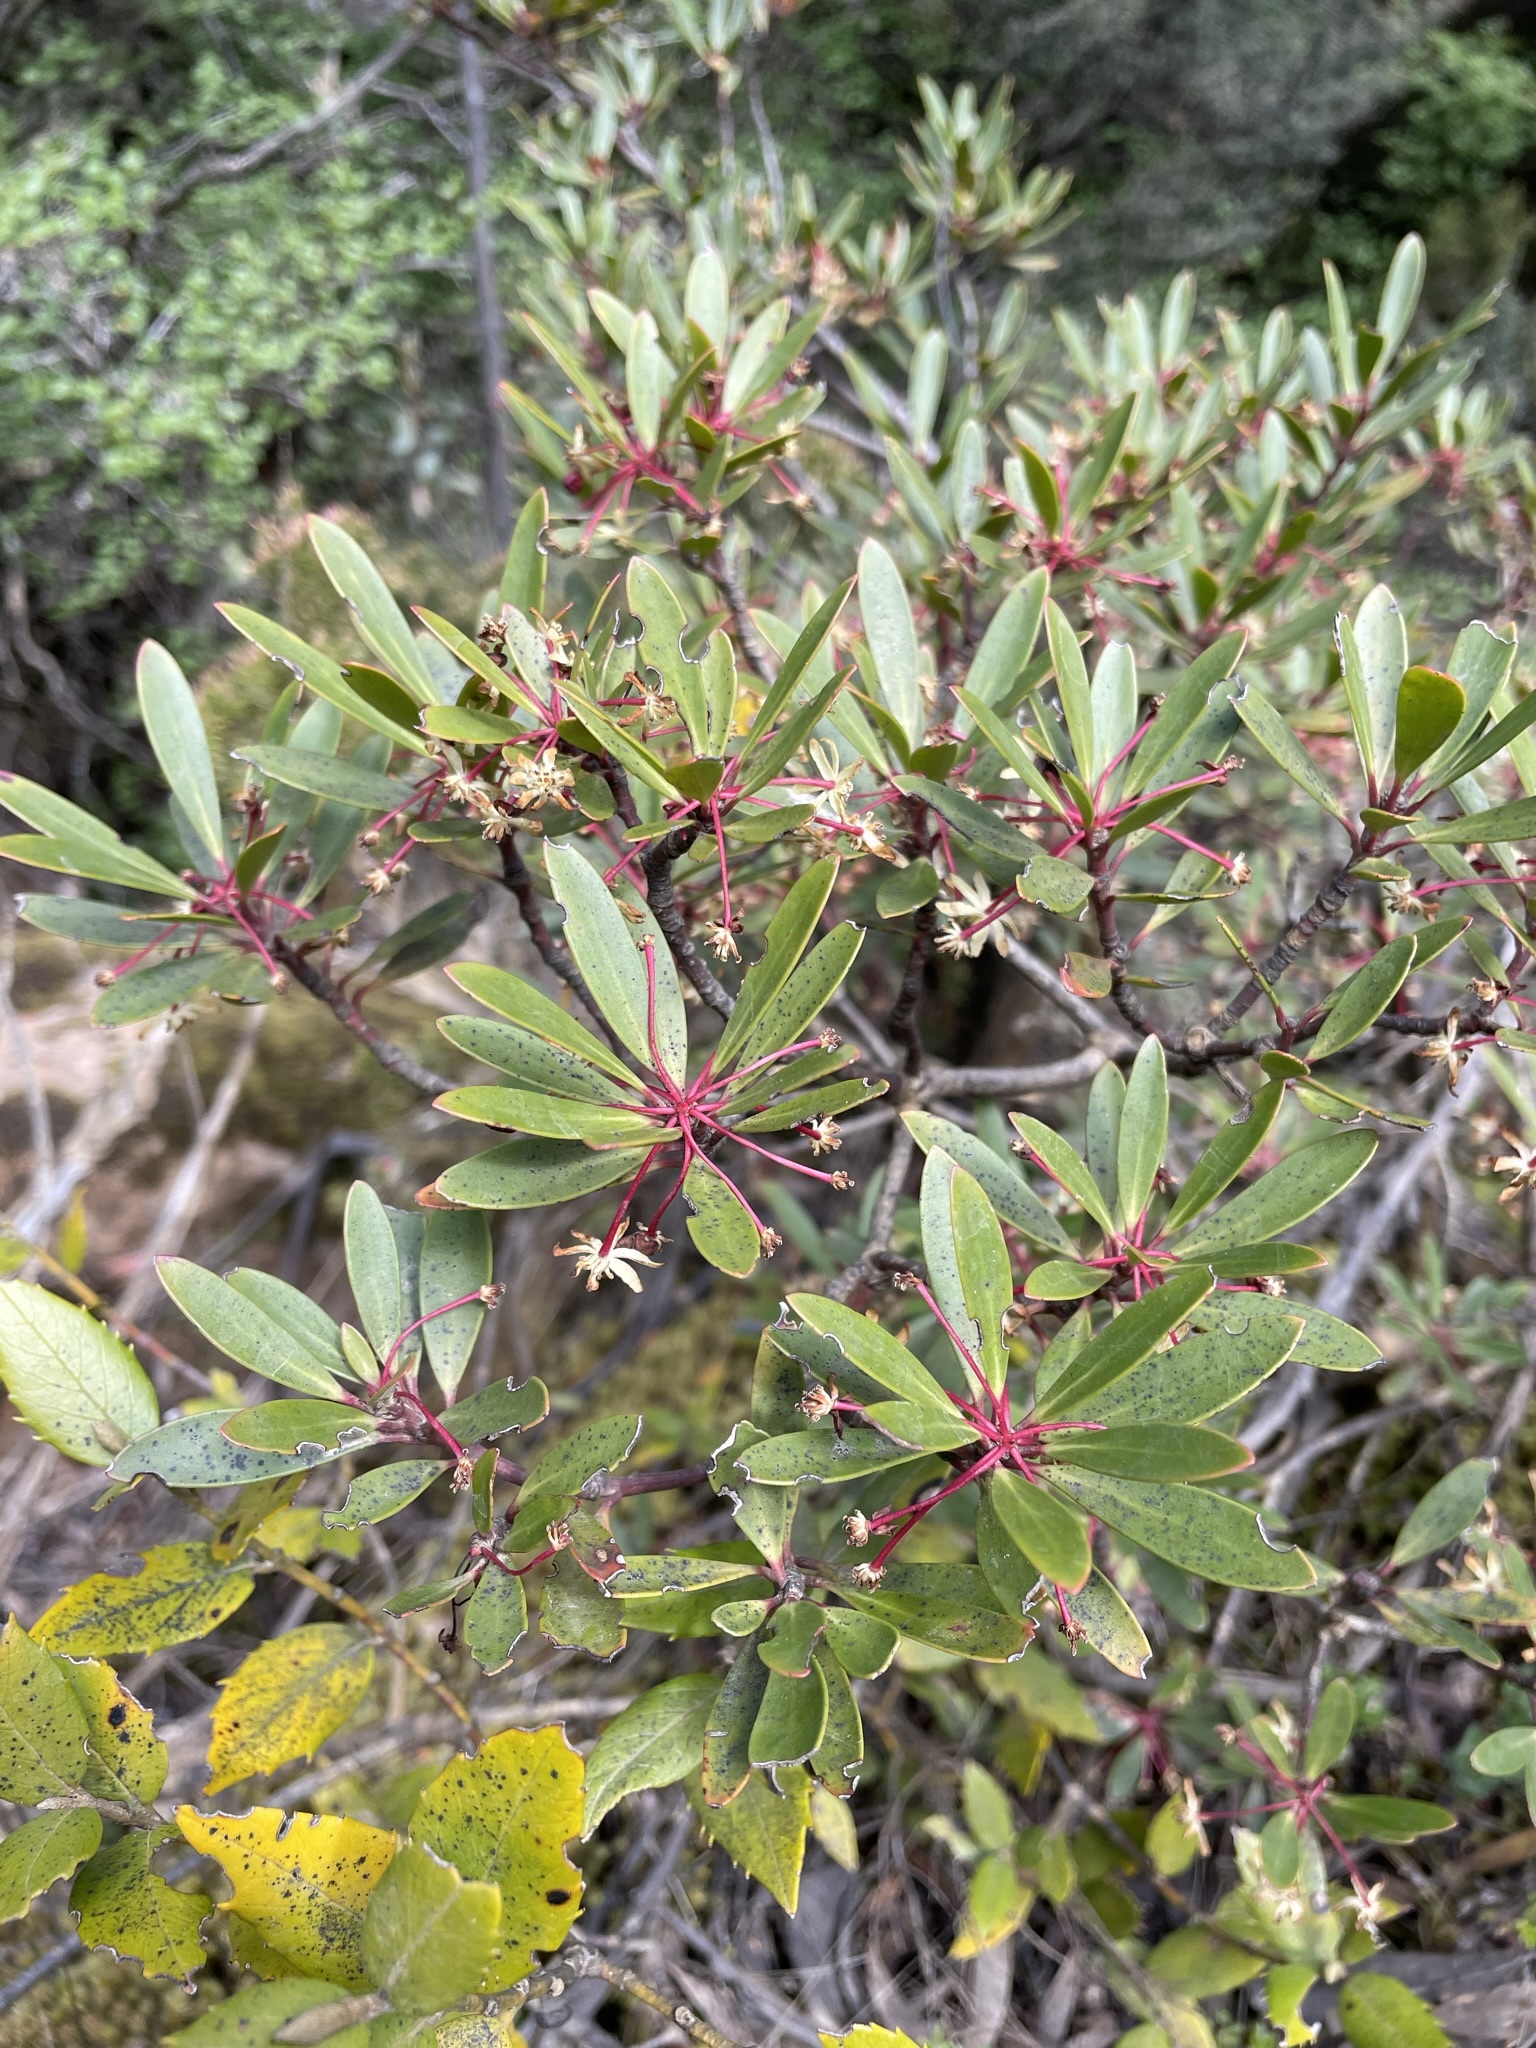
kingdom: Plantae
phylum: Tracheophyta
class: Magnoliopsida
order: Canellales
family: Winteraceae
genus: Drimys
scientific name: Drimys aromatica
